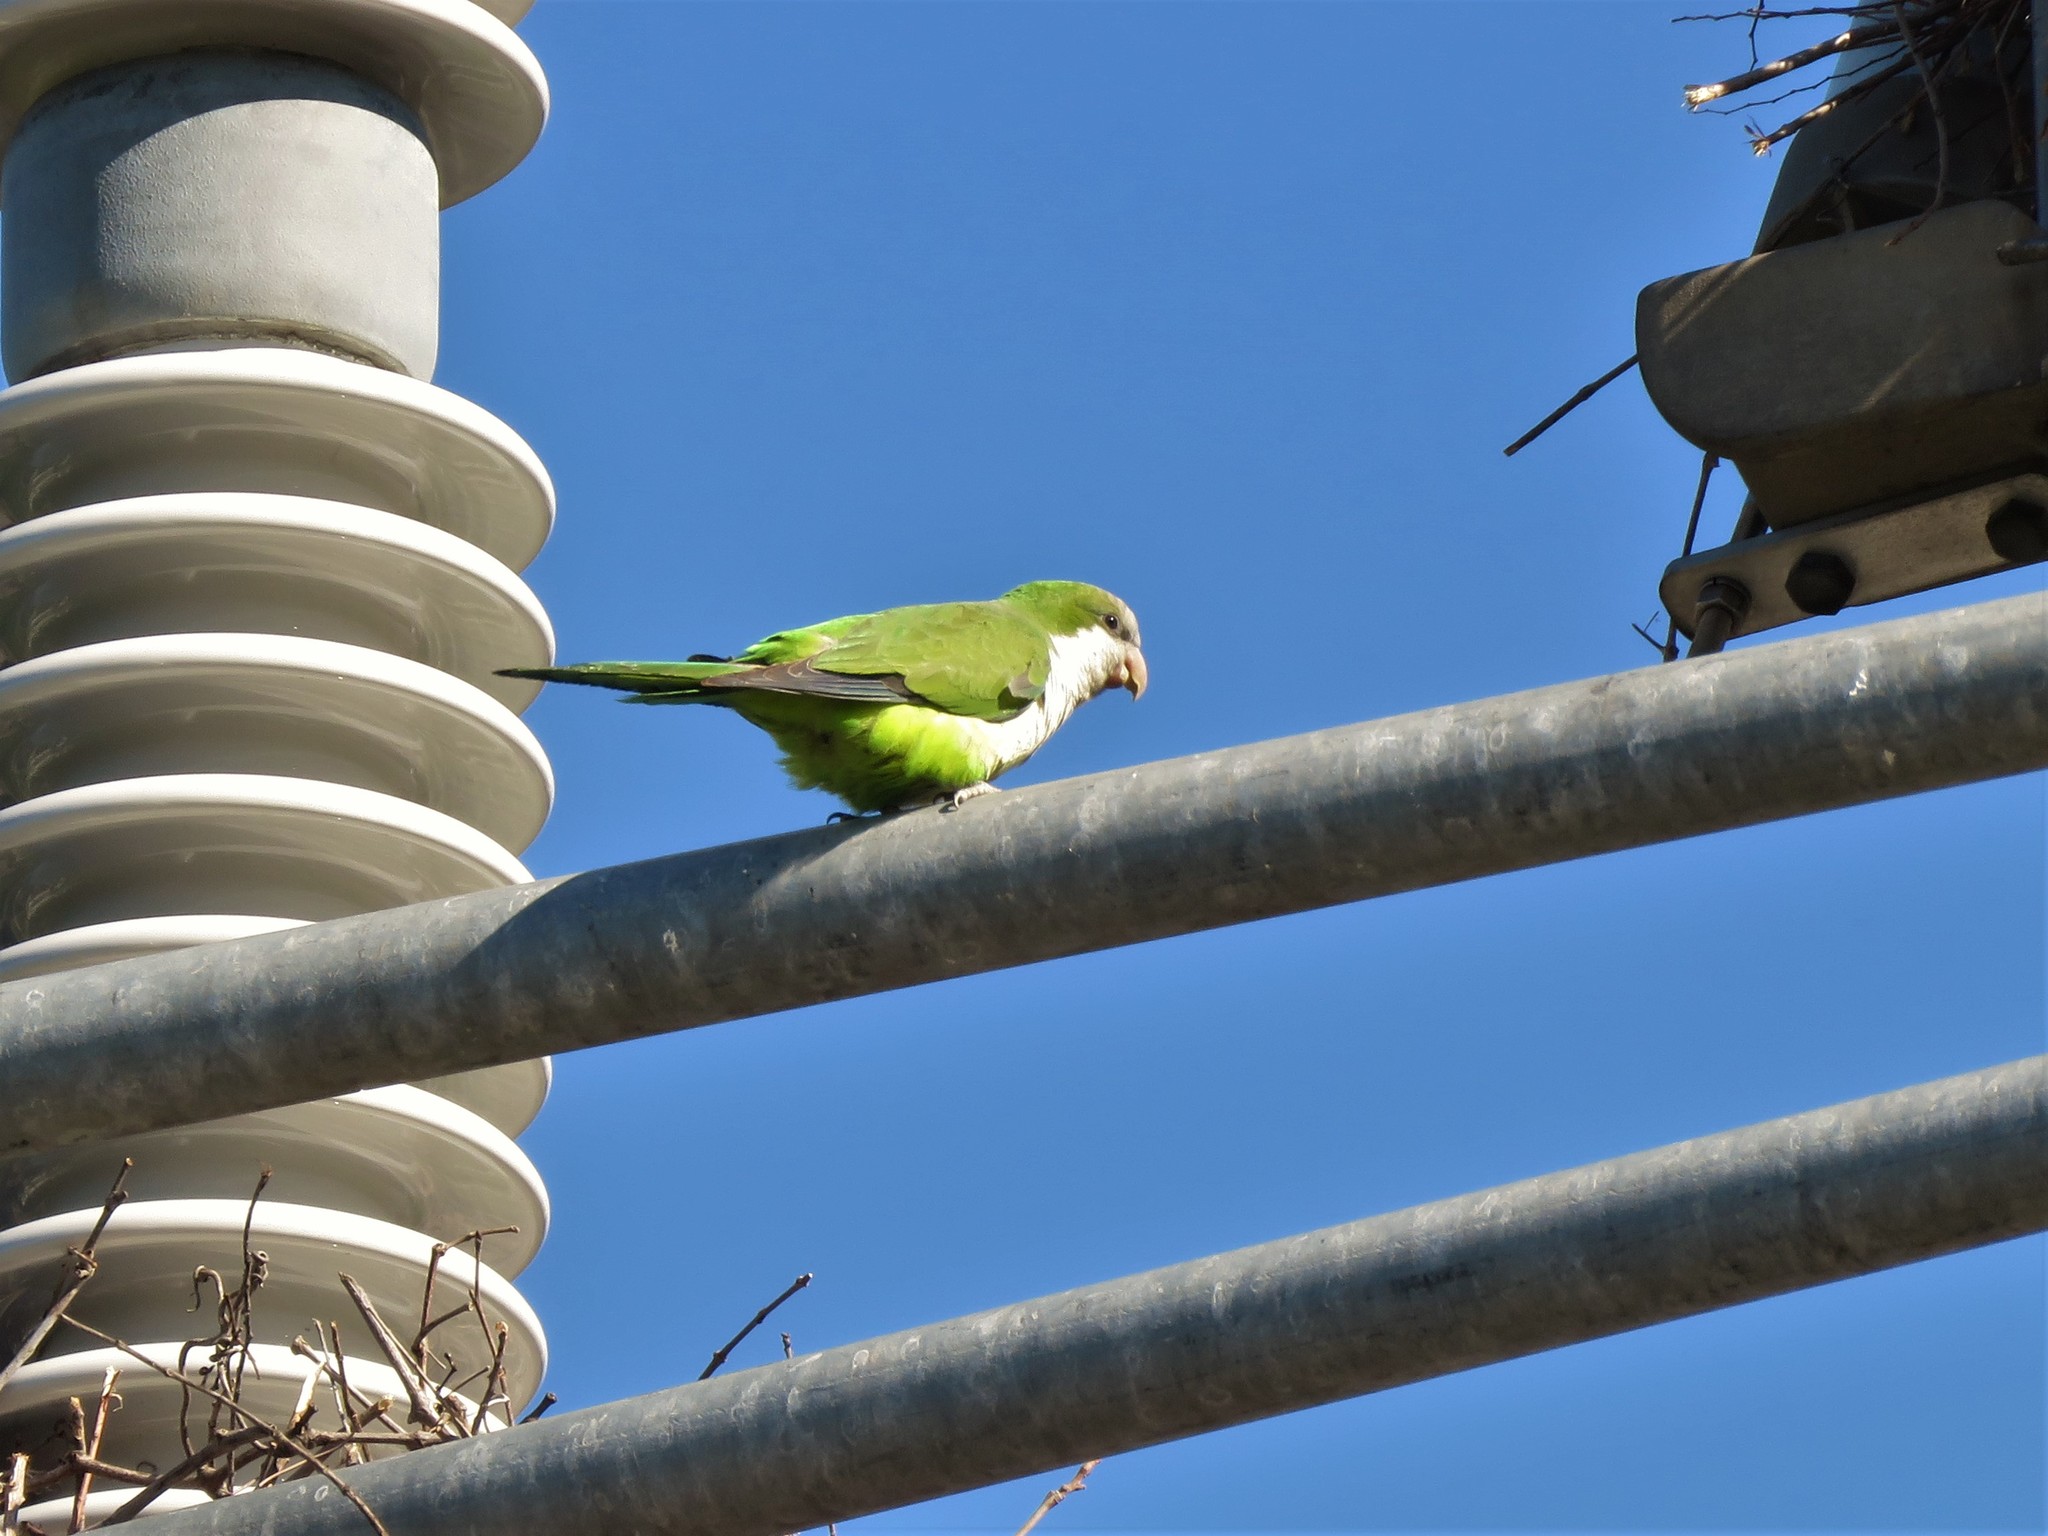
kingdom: Animalia
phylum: Chordata
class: Aves
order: Psittaciformes
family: Psittacidae
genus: Myiopsitta
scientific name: Myiopsitta monachus
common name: Monk parakeet
